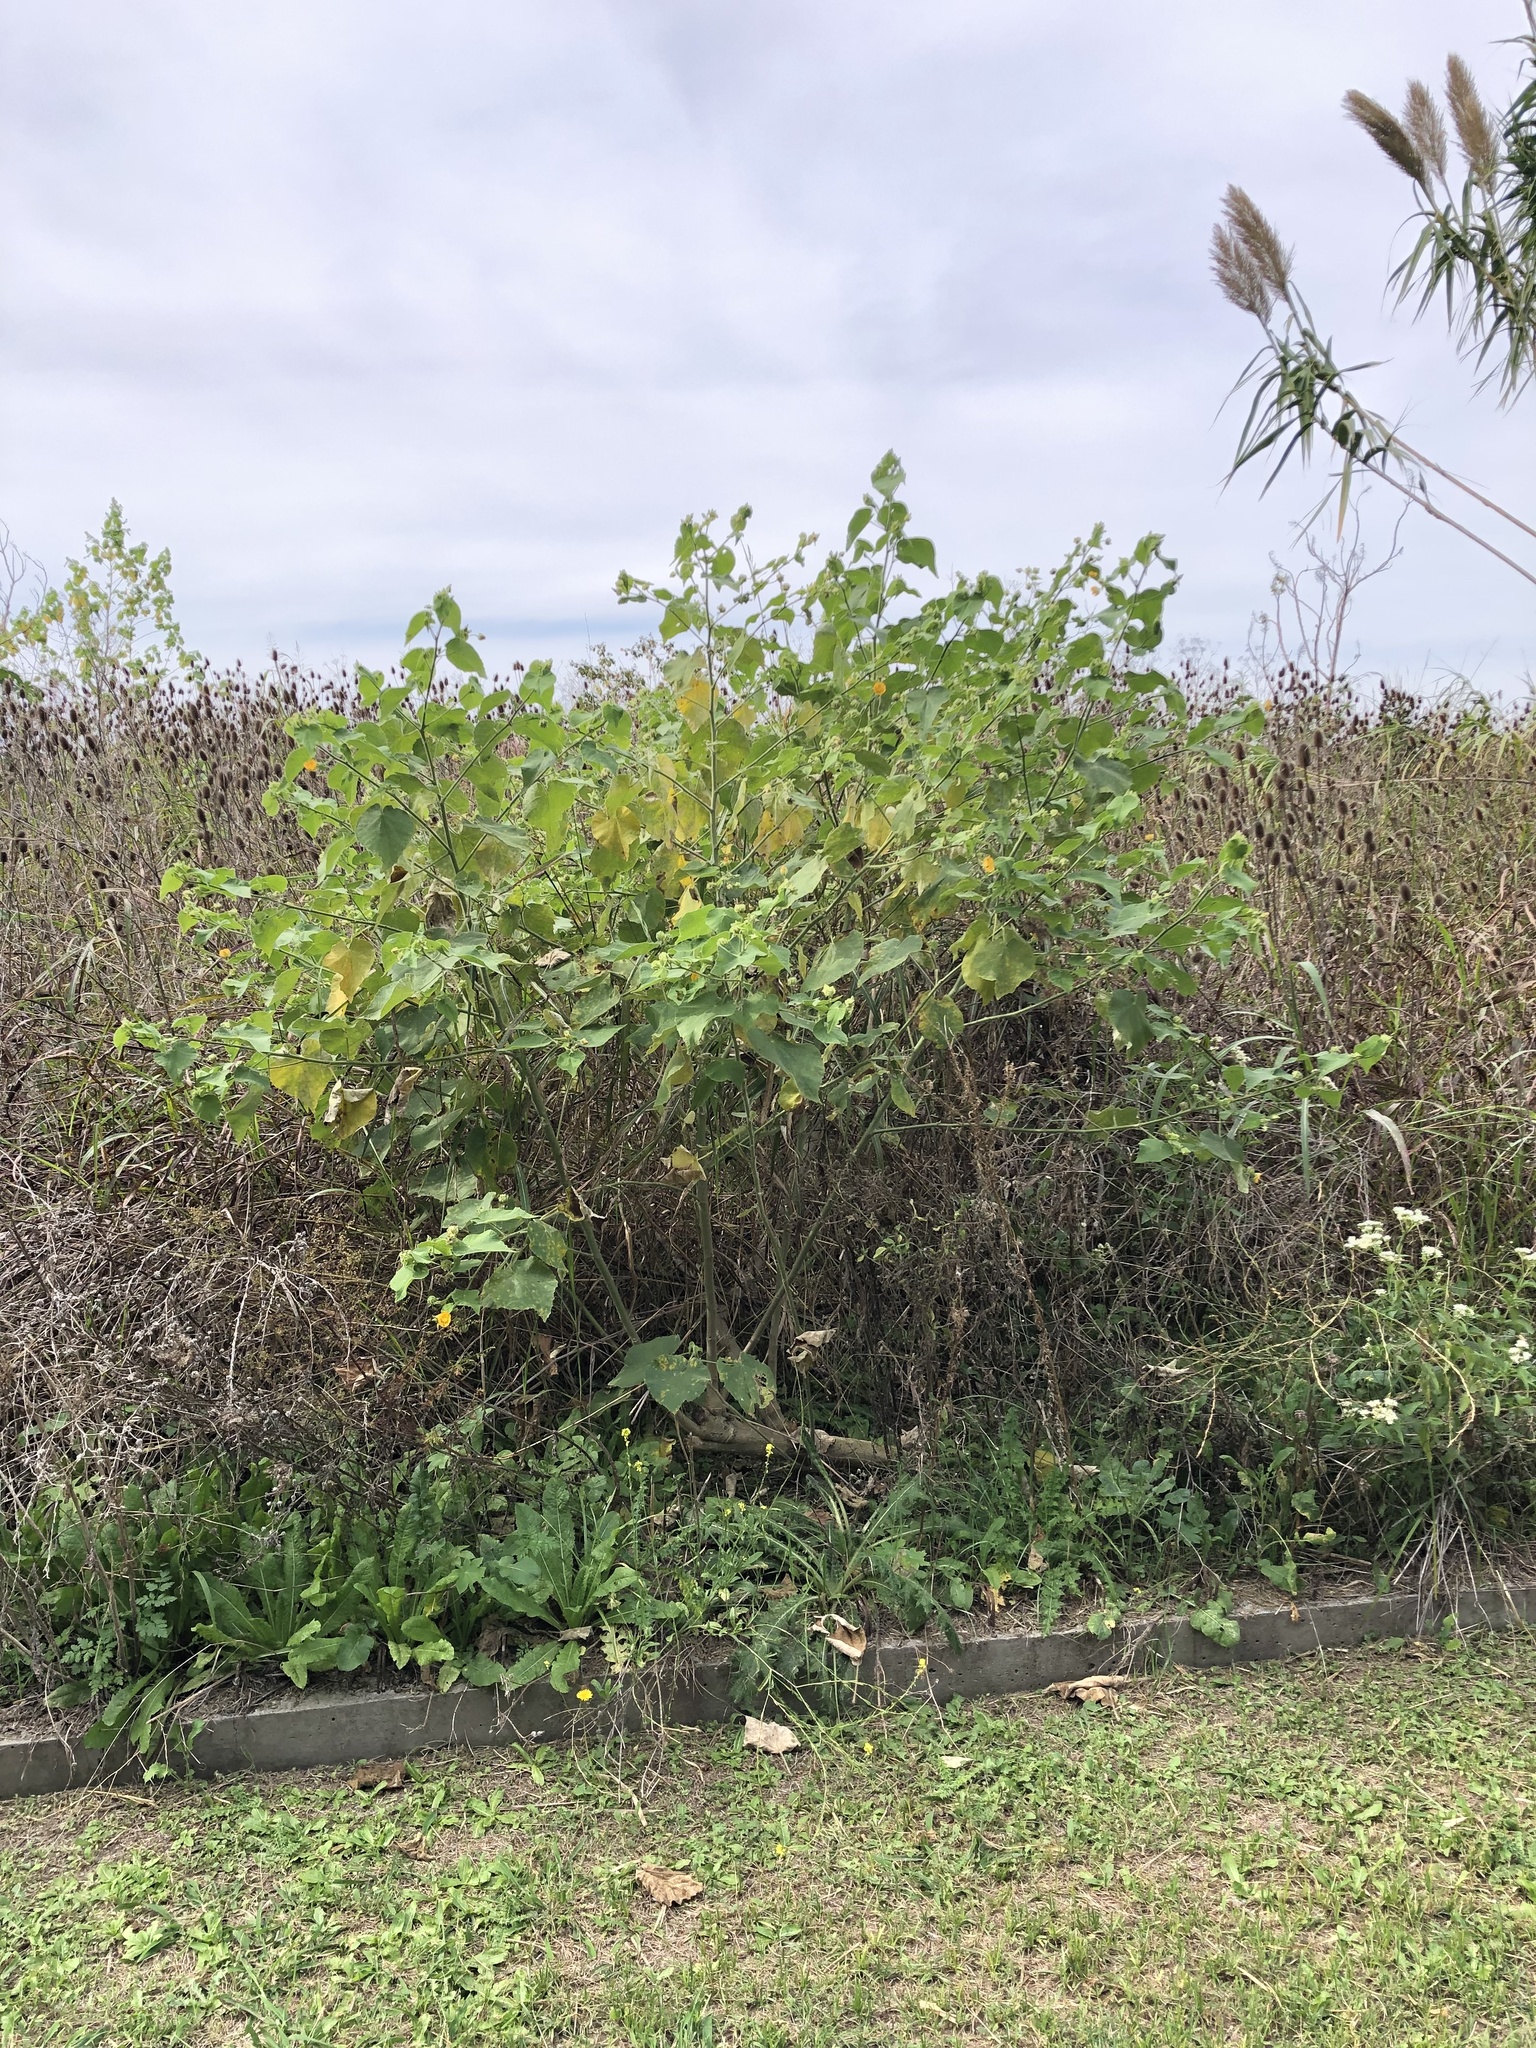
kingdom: Plantae
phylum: Tracheophyta
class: Magnoliopsida
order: Malvales
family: Malvaceae
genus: Abutilon
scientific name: Abutilon grandifolium
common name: Hairy abutilon
